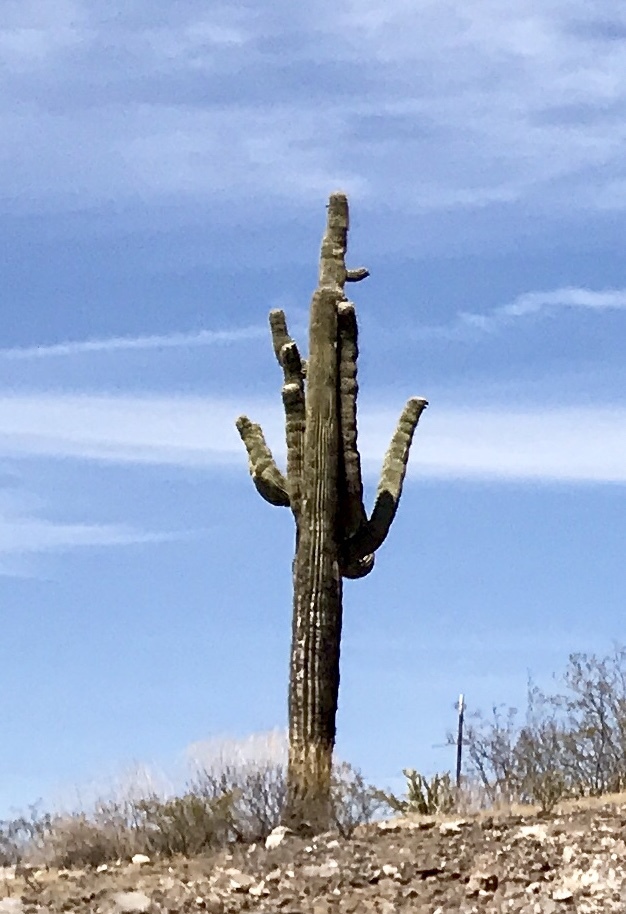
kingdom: Plantae
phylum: Tracheophyta
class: Magnoliopsida
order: Caryophyllales
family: Cactaceae
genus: Carnegiea
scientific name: Carnegiea gigantea
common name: Saguaro
